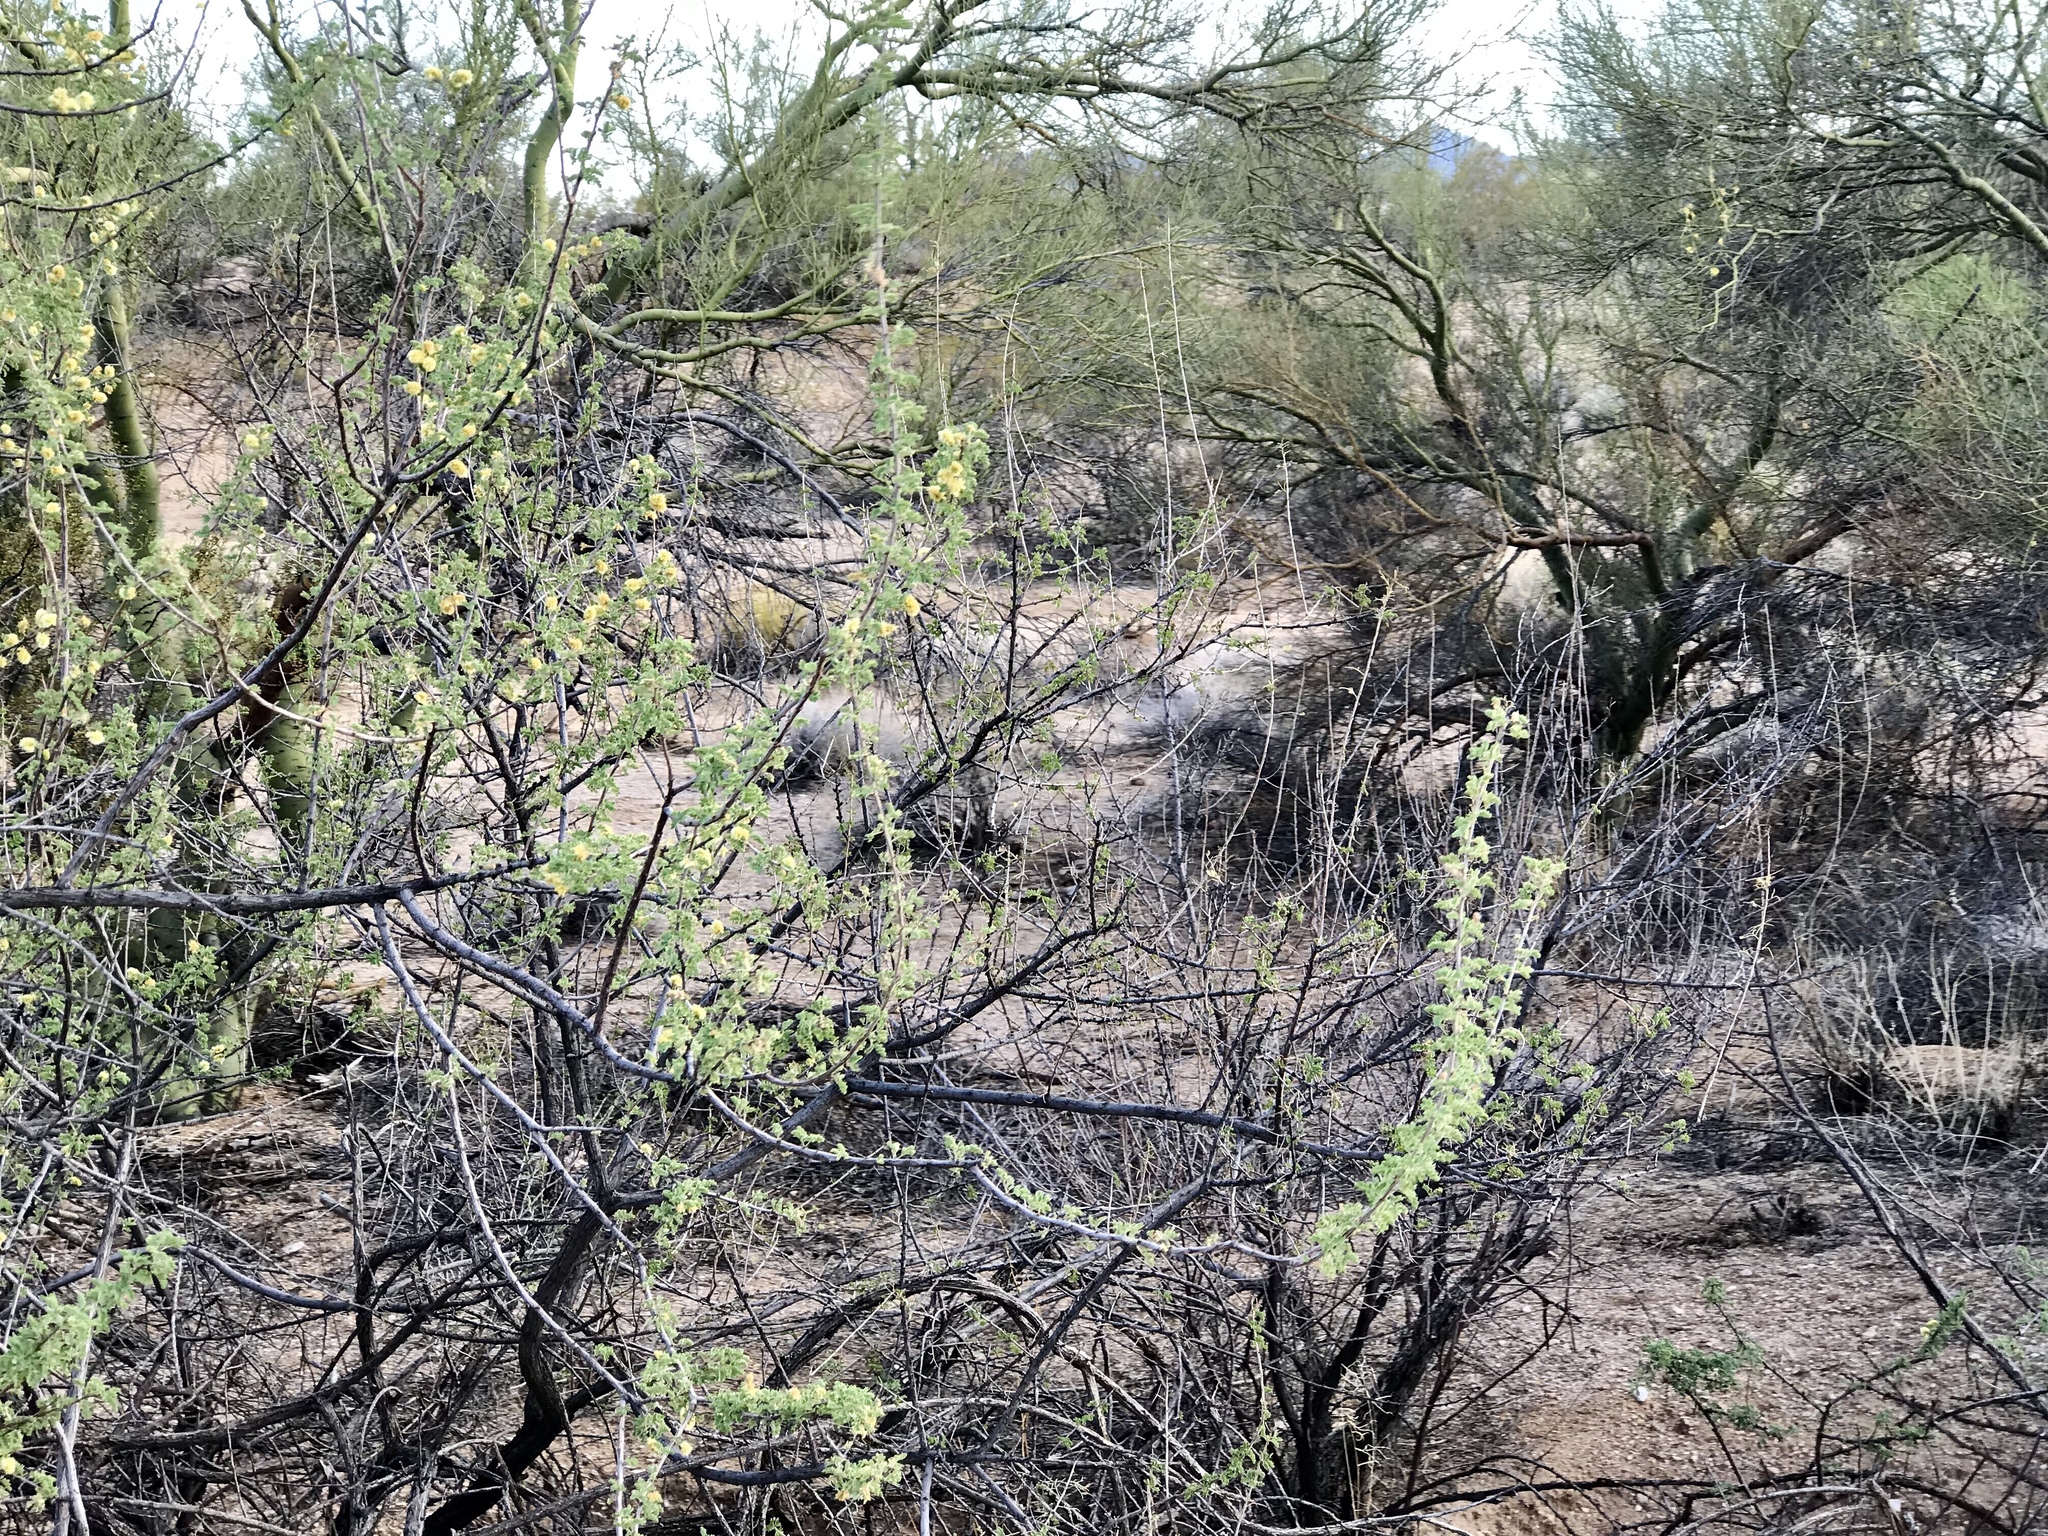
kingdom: Plantae
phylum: Tracheophyta
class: Magnoliopsida
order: Fabales
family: Fabaceae
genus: Senegalia
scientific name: Senegalia greggii
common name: Texas-mimosa
